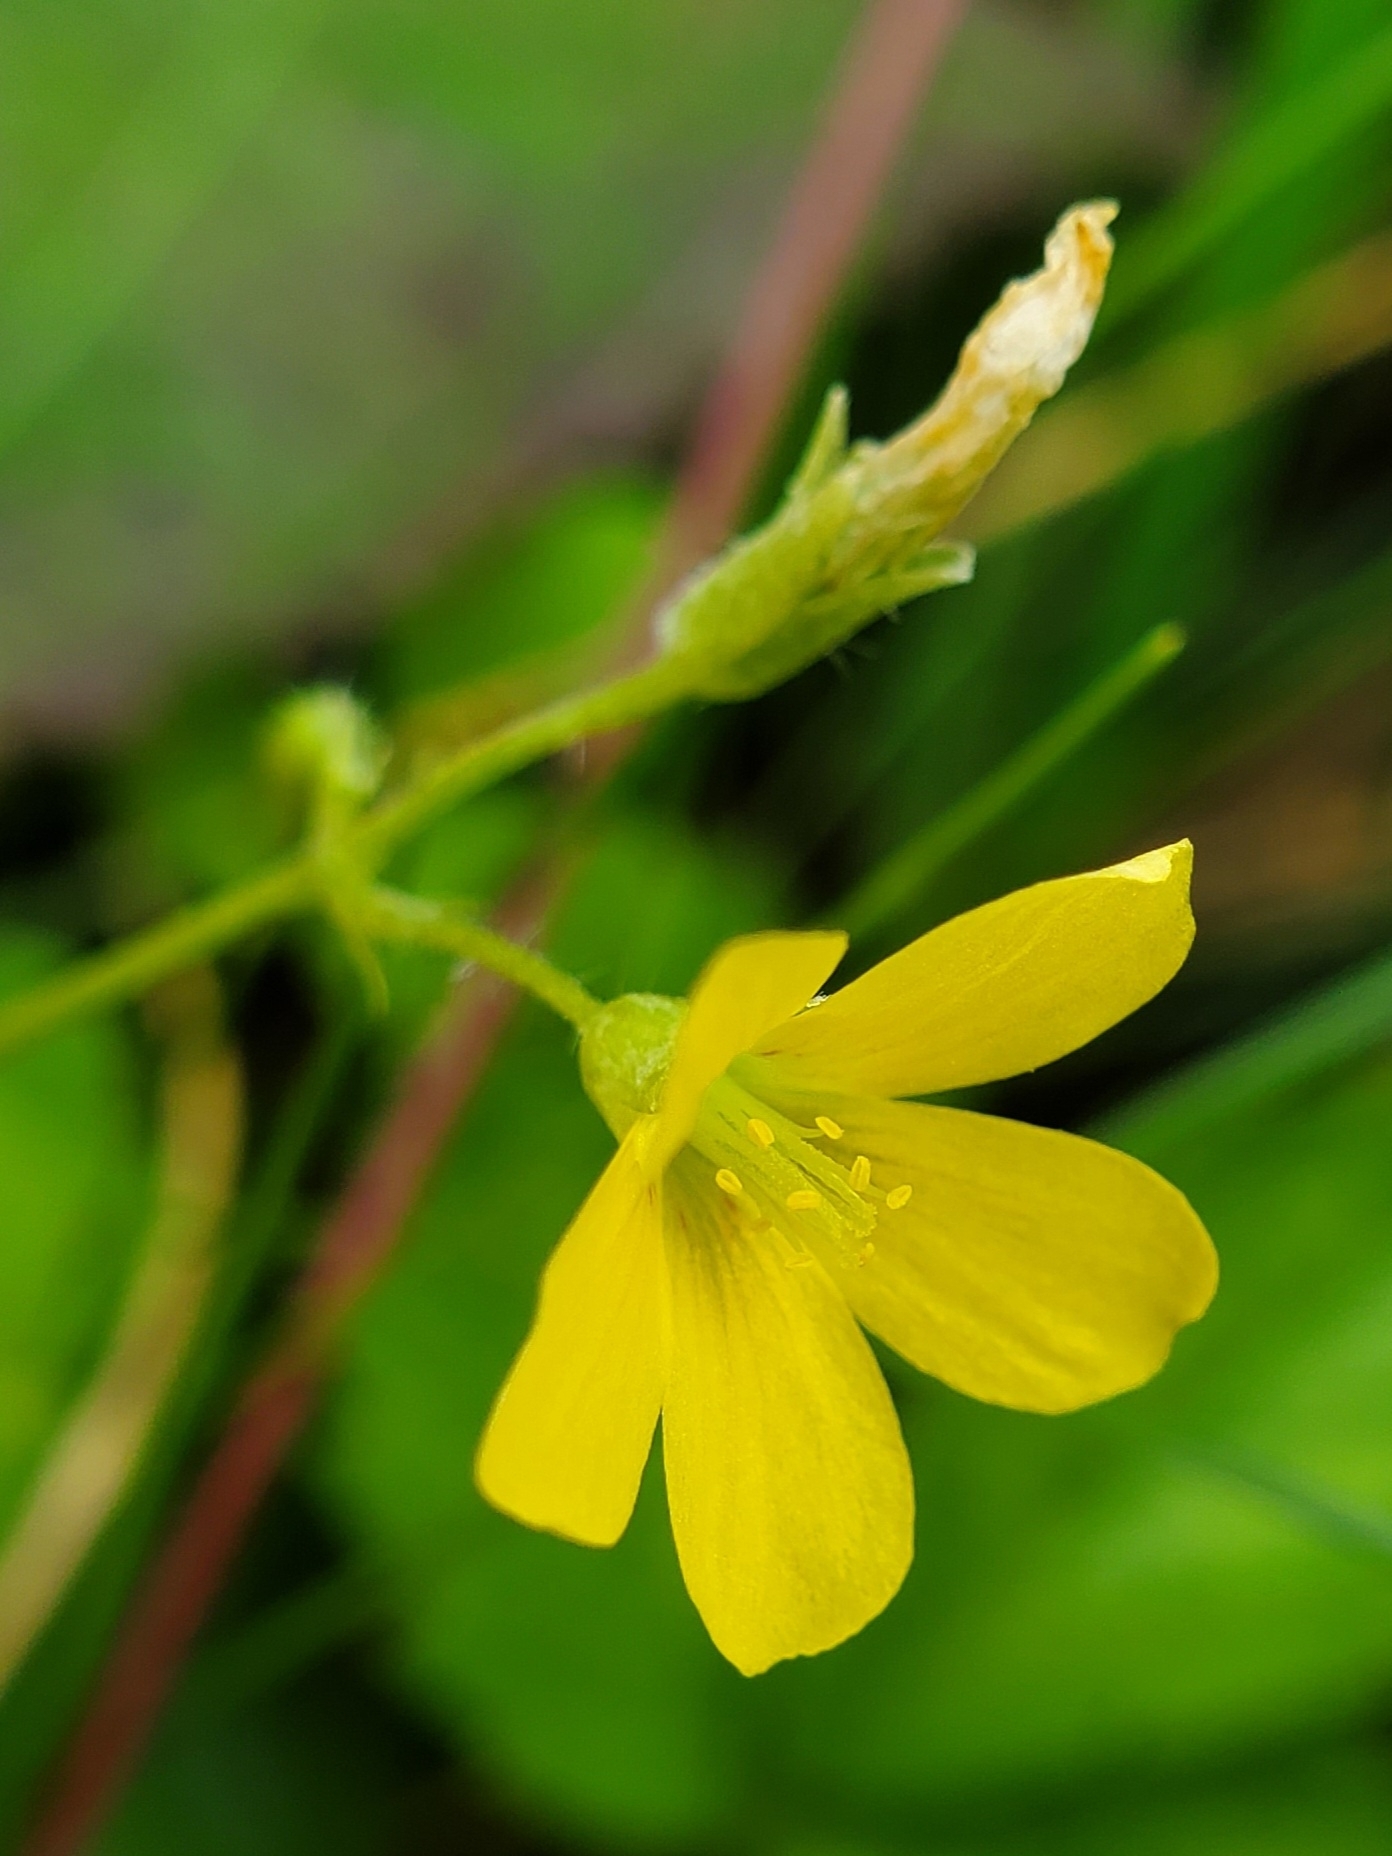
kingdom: Plantae
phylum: Tracheophyta
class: Magnoliopsida
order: Oxalidales
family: Oxalidaceae
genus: Oxalis
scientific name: Oxalis stricta
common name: Upright yellow-sorrel
